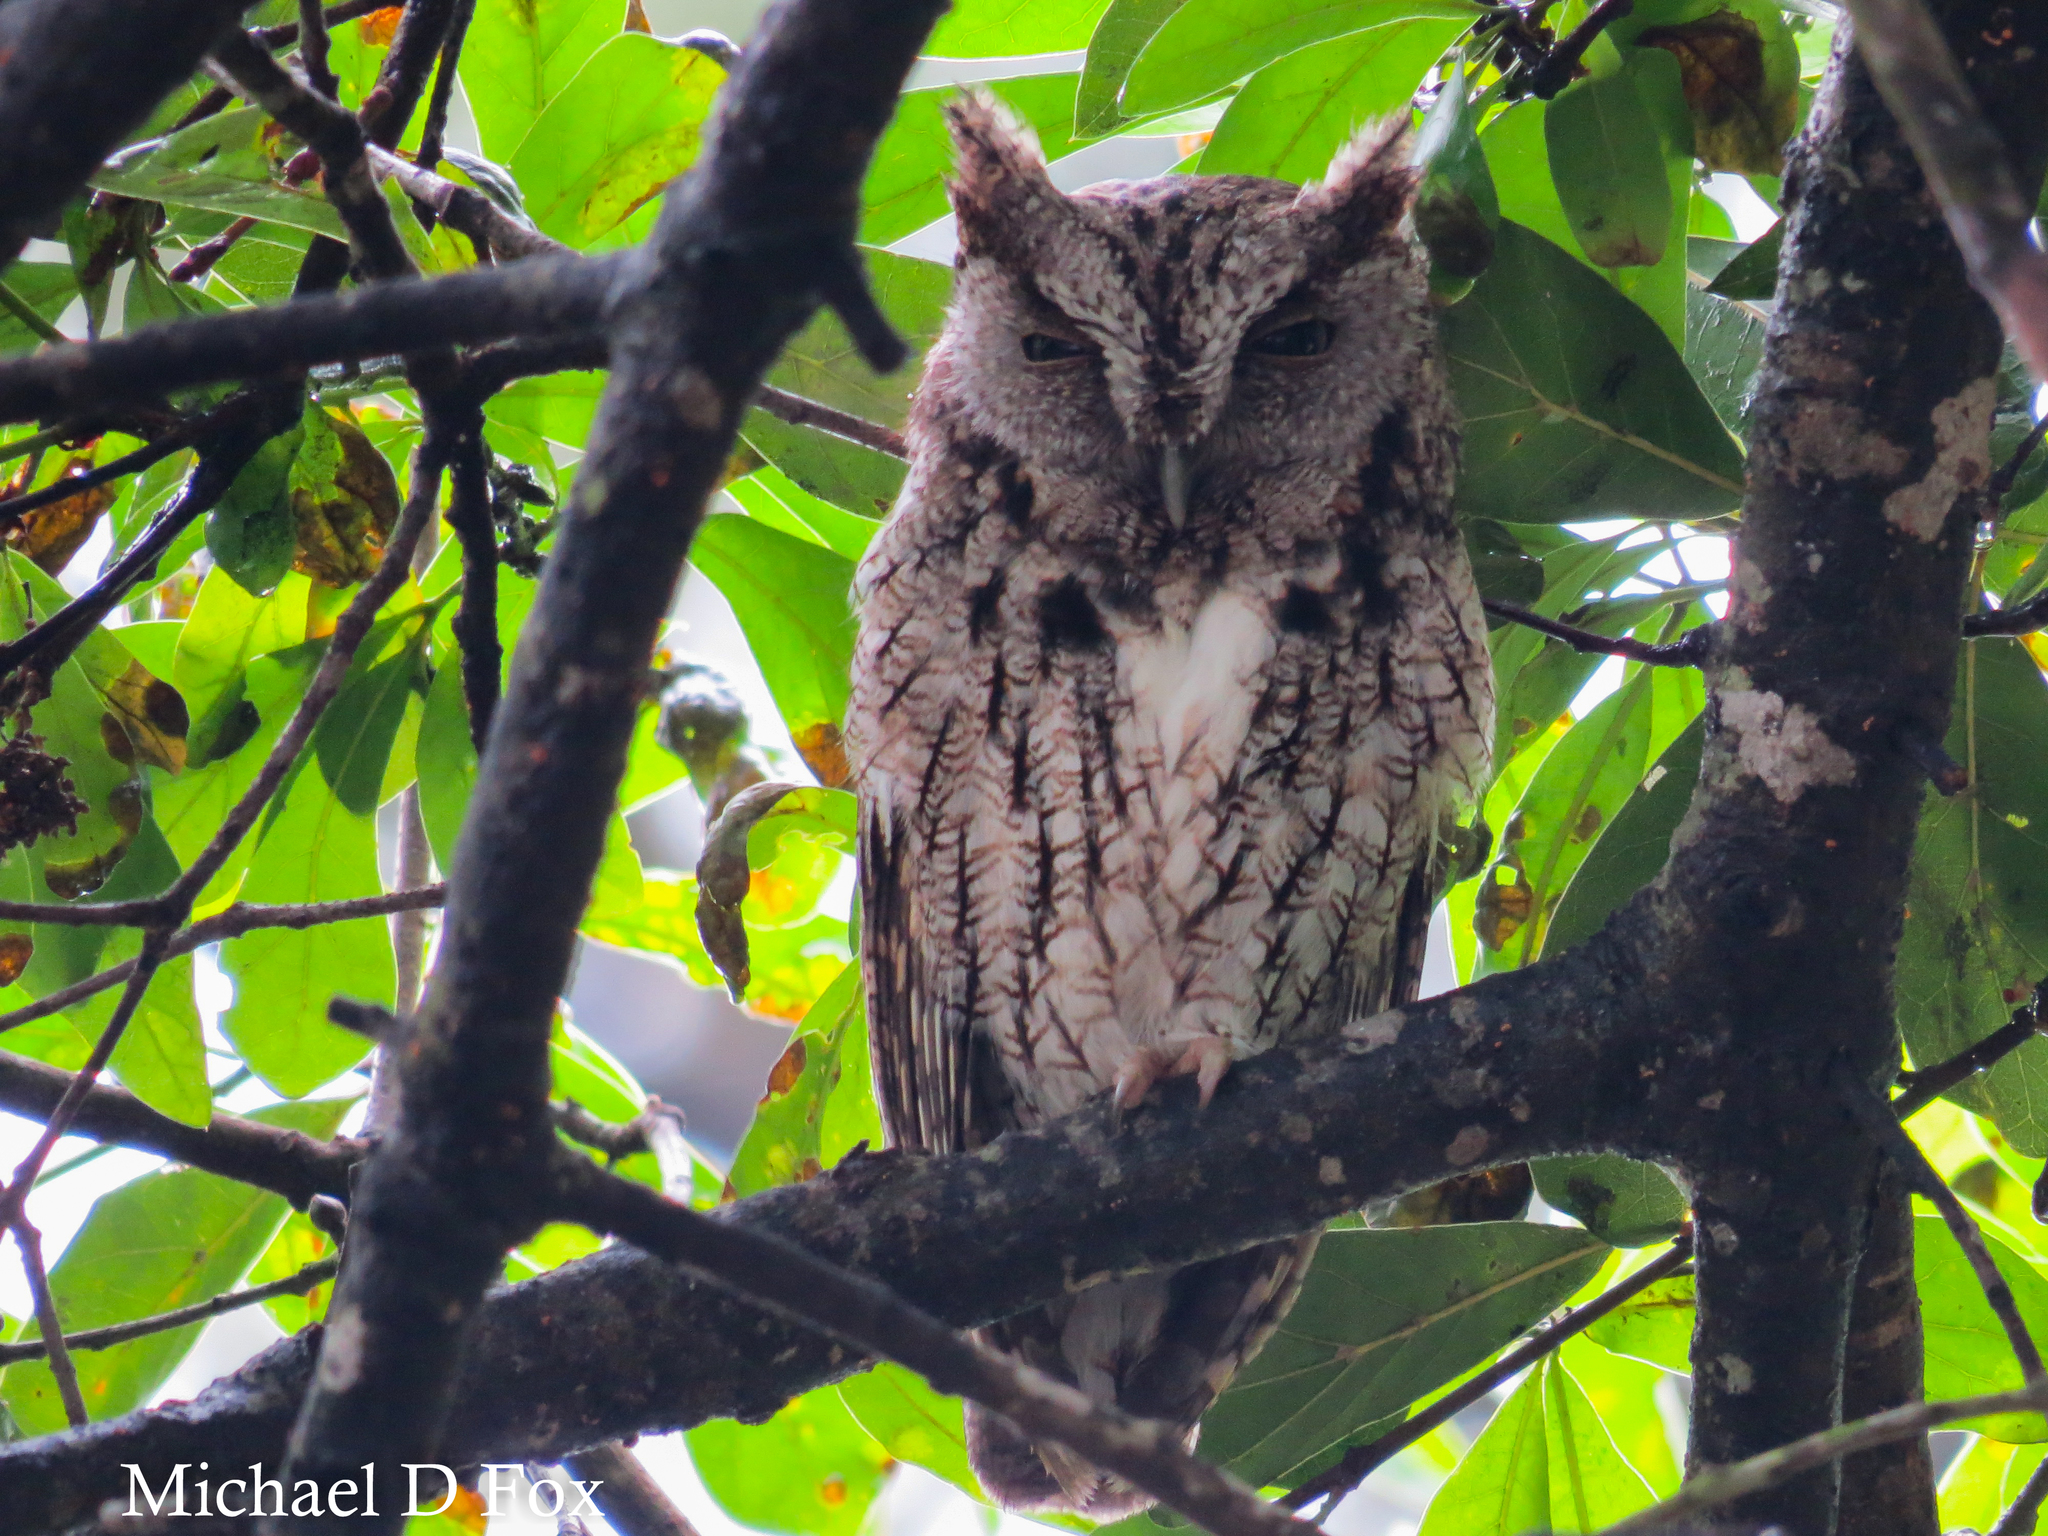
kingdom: Animalia
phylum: Chordata
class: Aves
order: Strigiformes
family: Strigidae
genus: Megascops
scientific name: Megascops asio
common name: Eastern screech-owl
